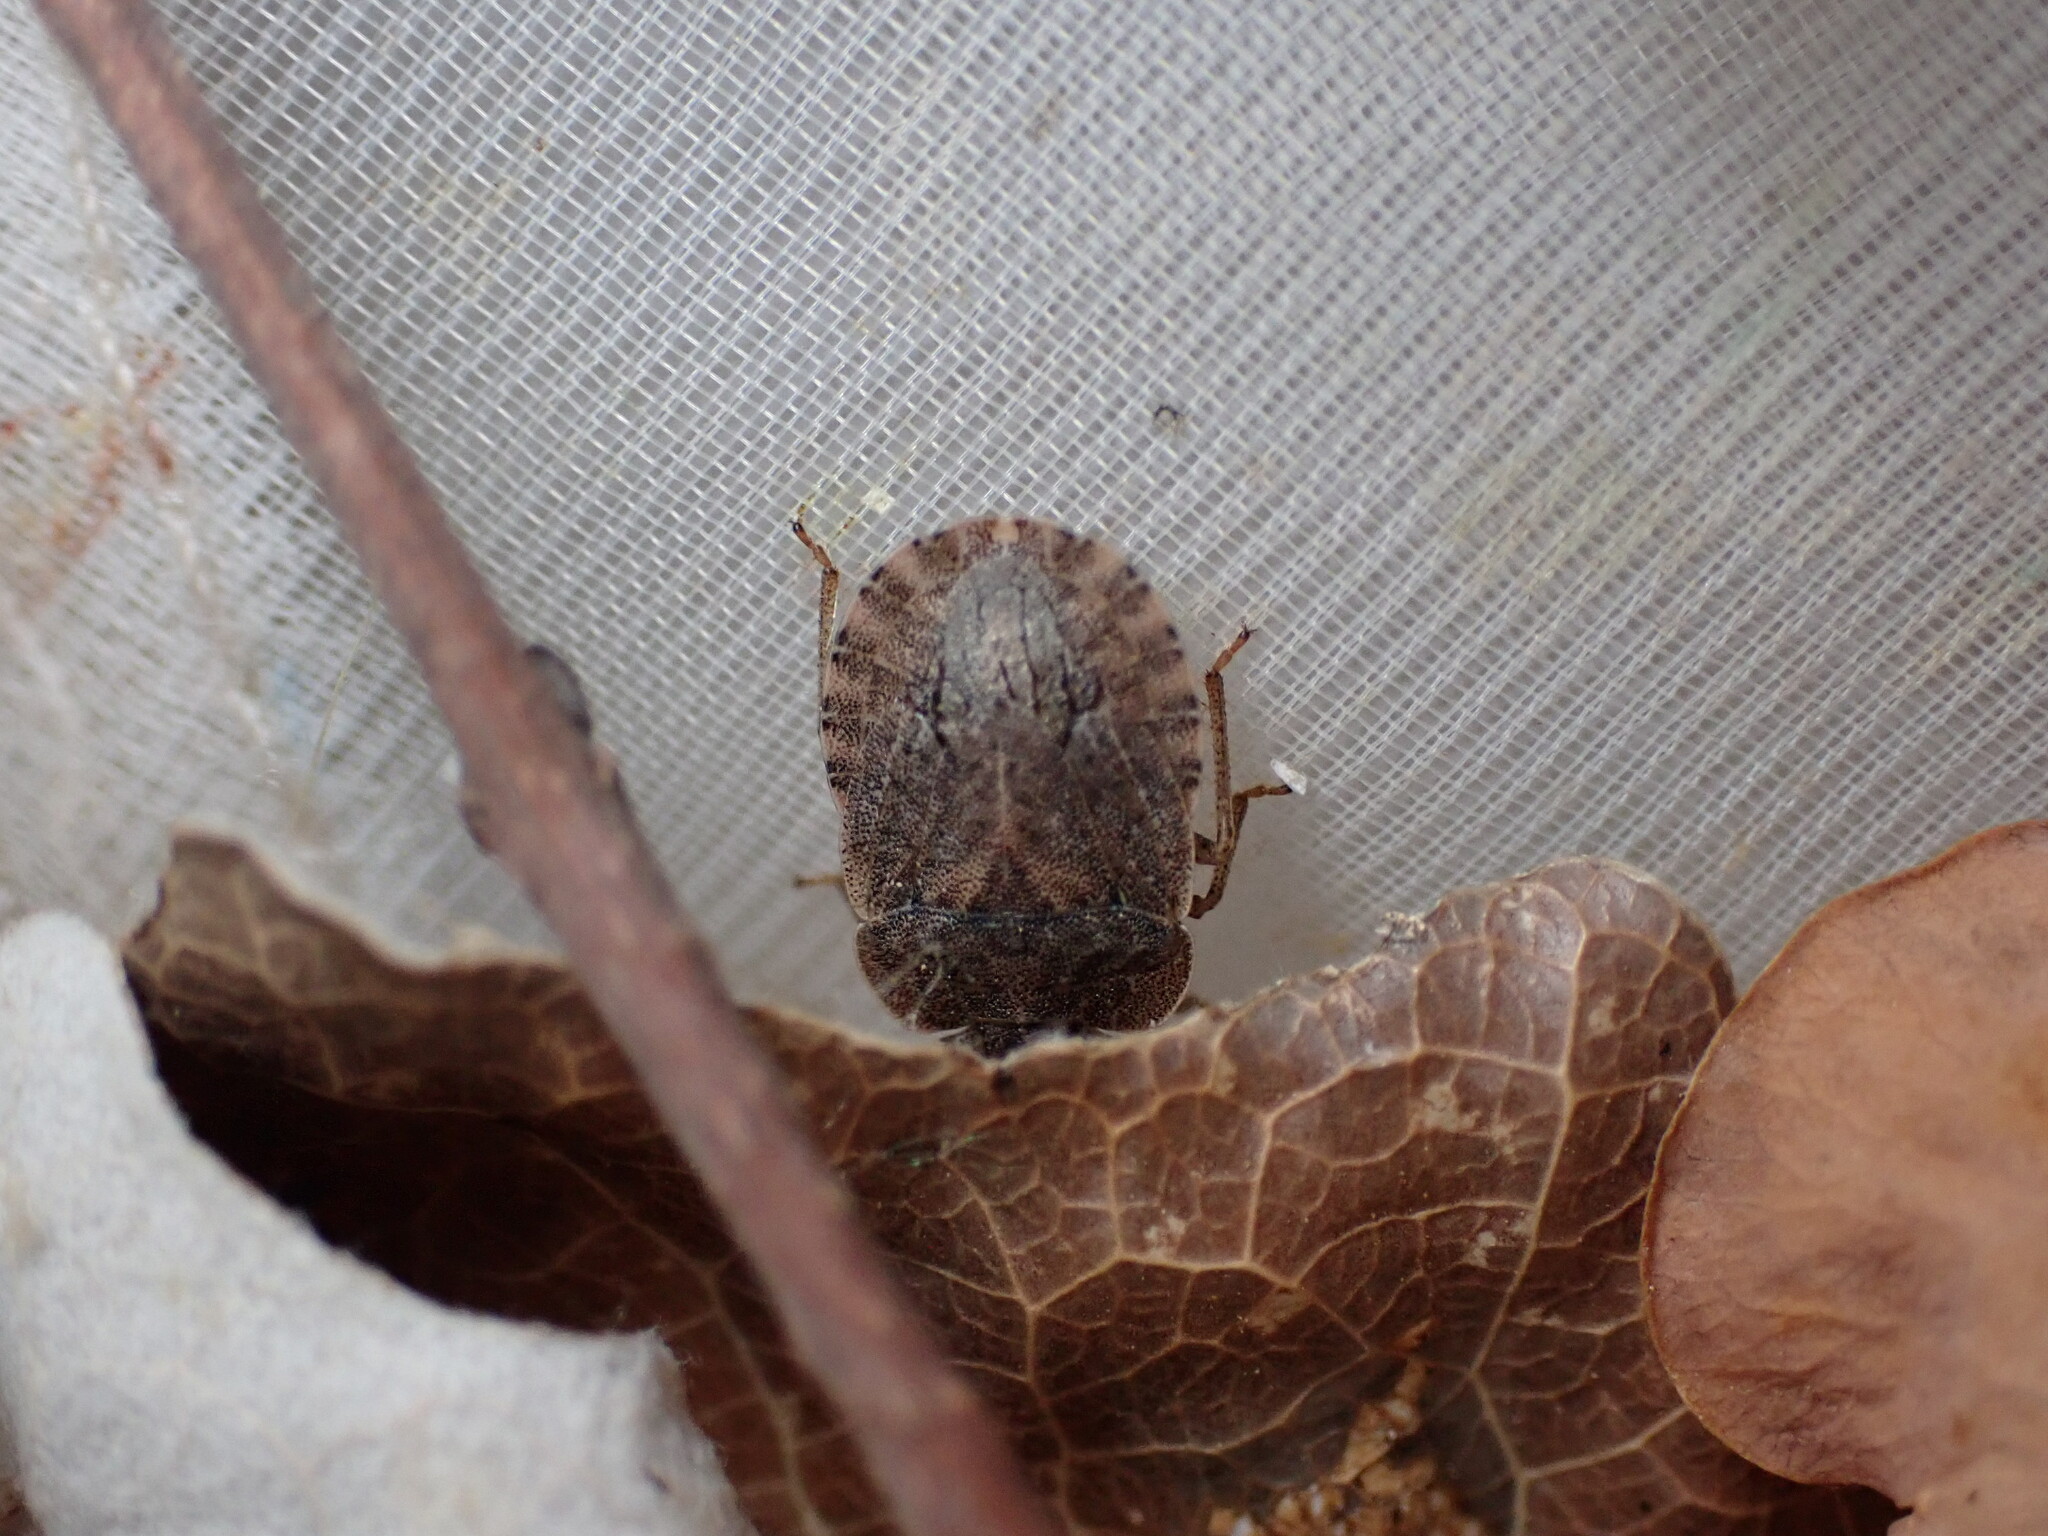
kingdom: Animalia
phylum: Arthropoda
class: Insecta
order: Hemiptera
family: Pentatomidae
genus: Sciocoris
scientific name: Sciocoris homalonotus
